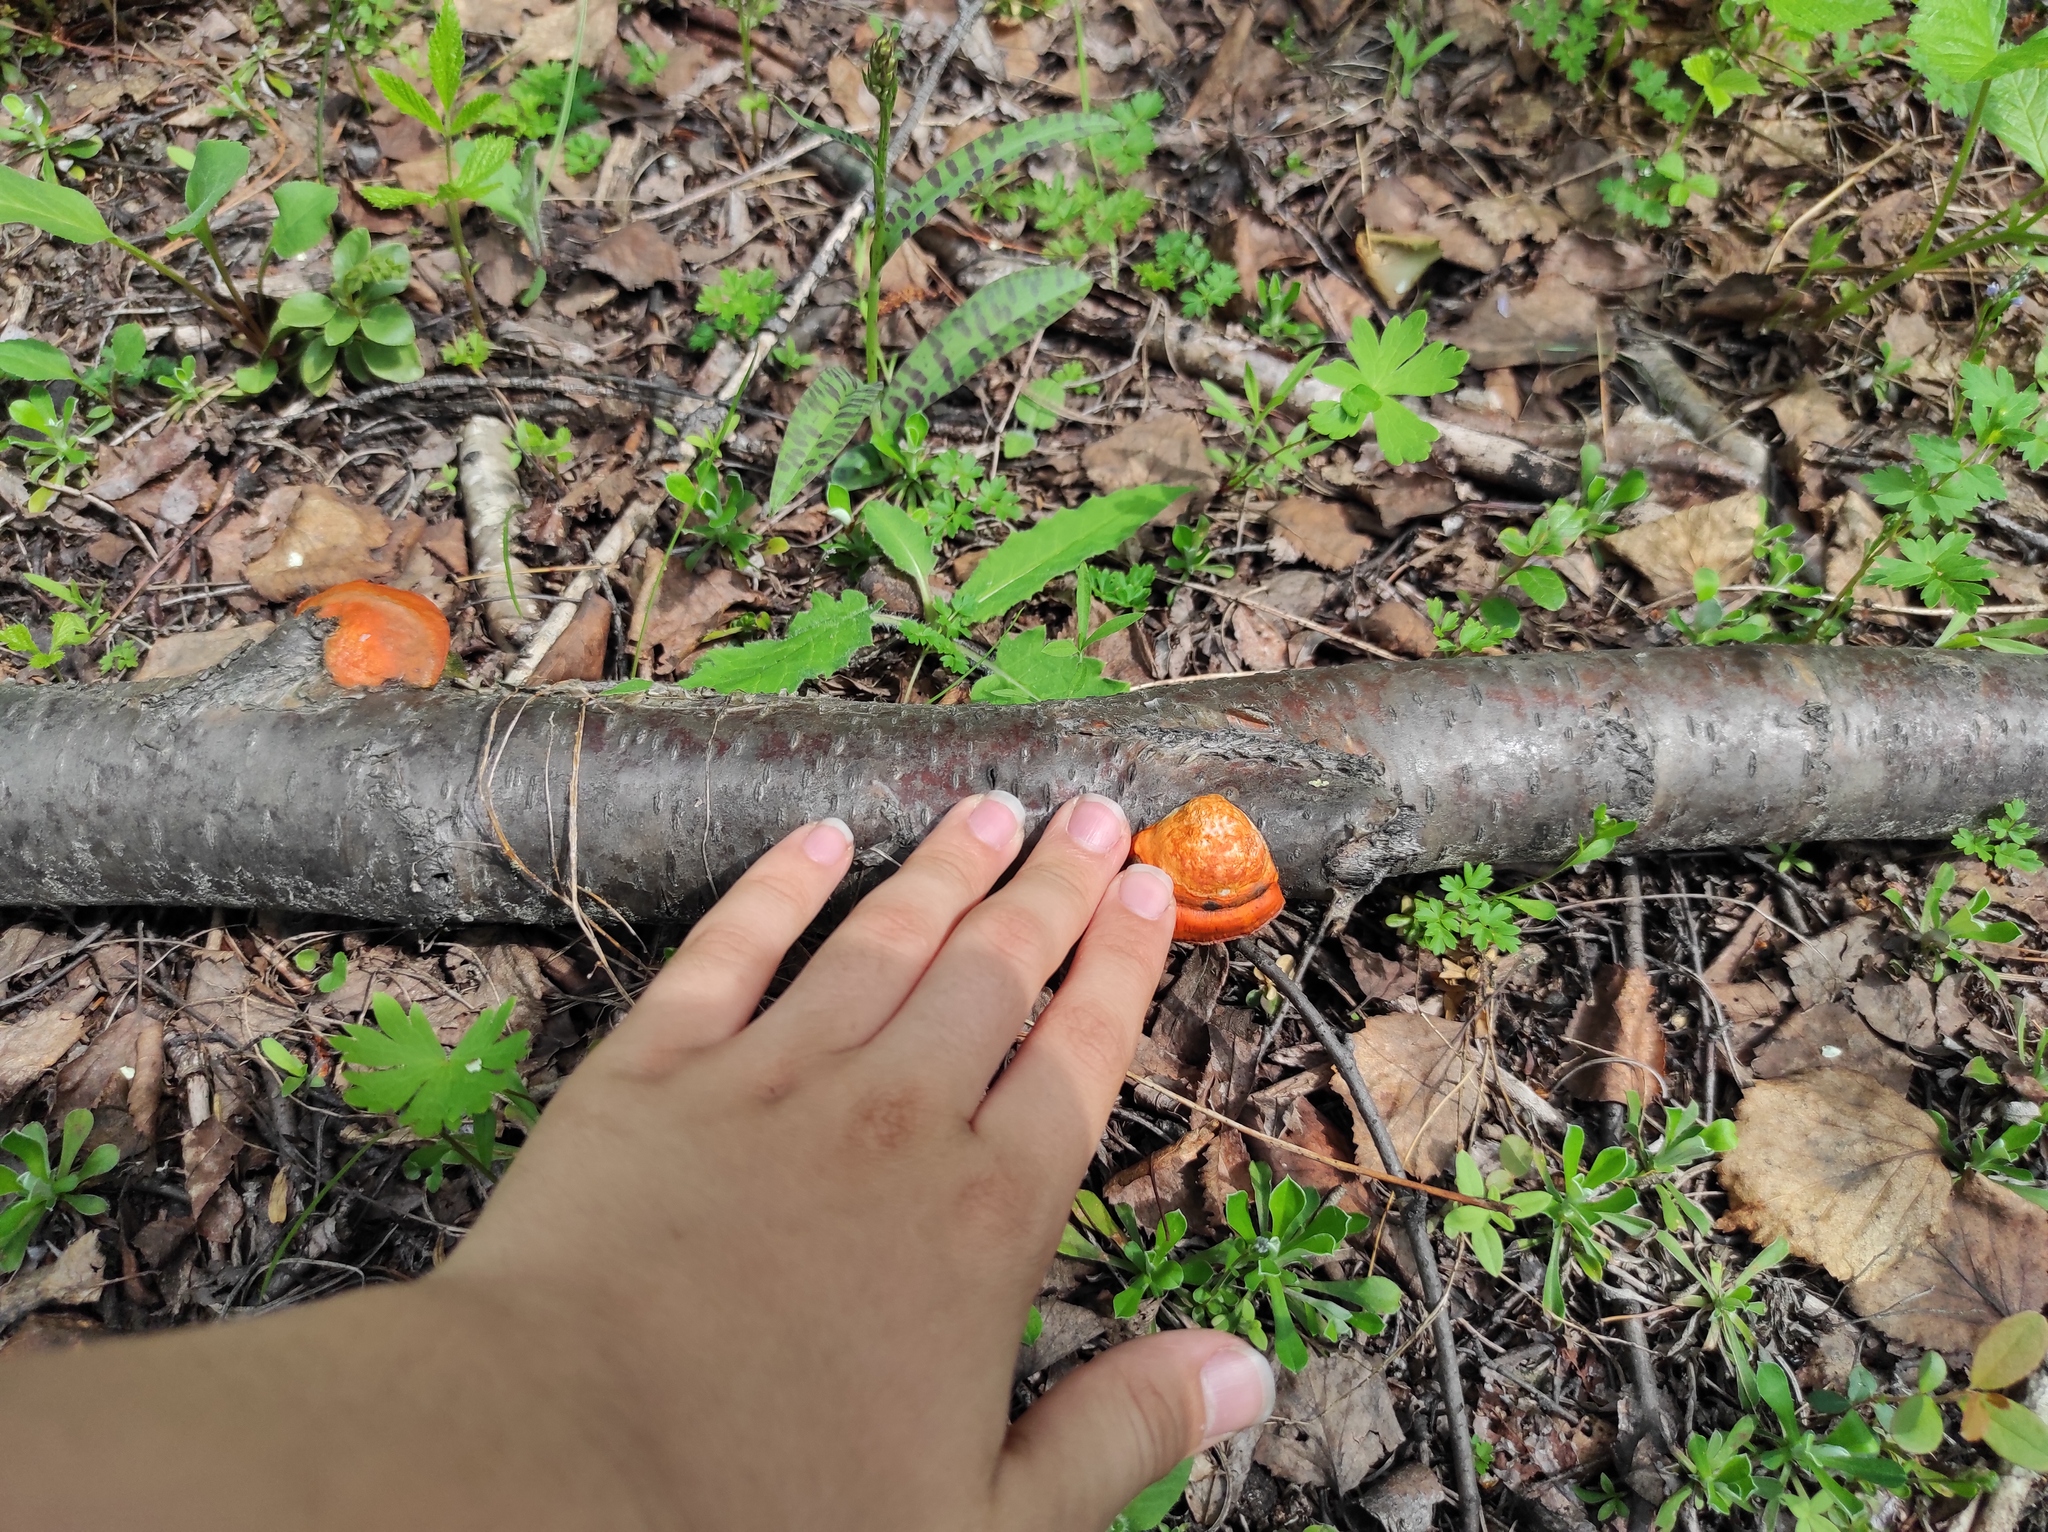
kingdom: Plantae
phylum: Tracheophyta
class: Liliopsida
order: Asparagales
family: Orchidaceae
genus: Dactylorhiza
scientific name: Dactylorhiza maculata
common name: Heath spotted-orchid
